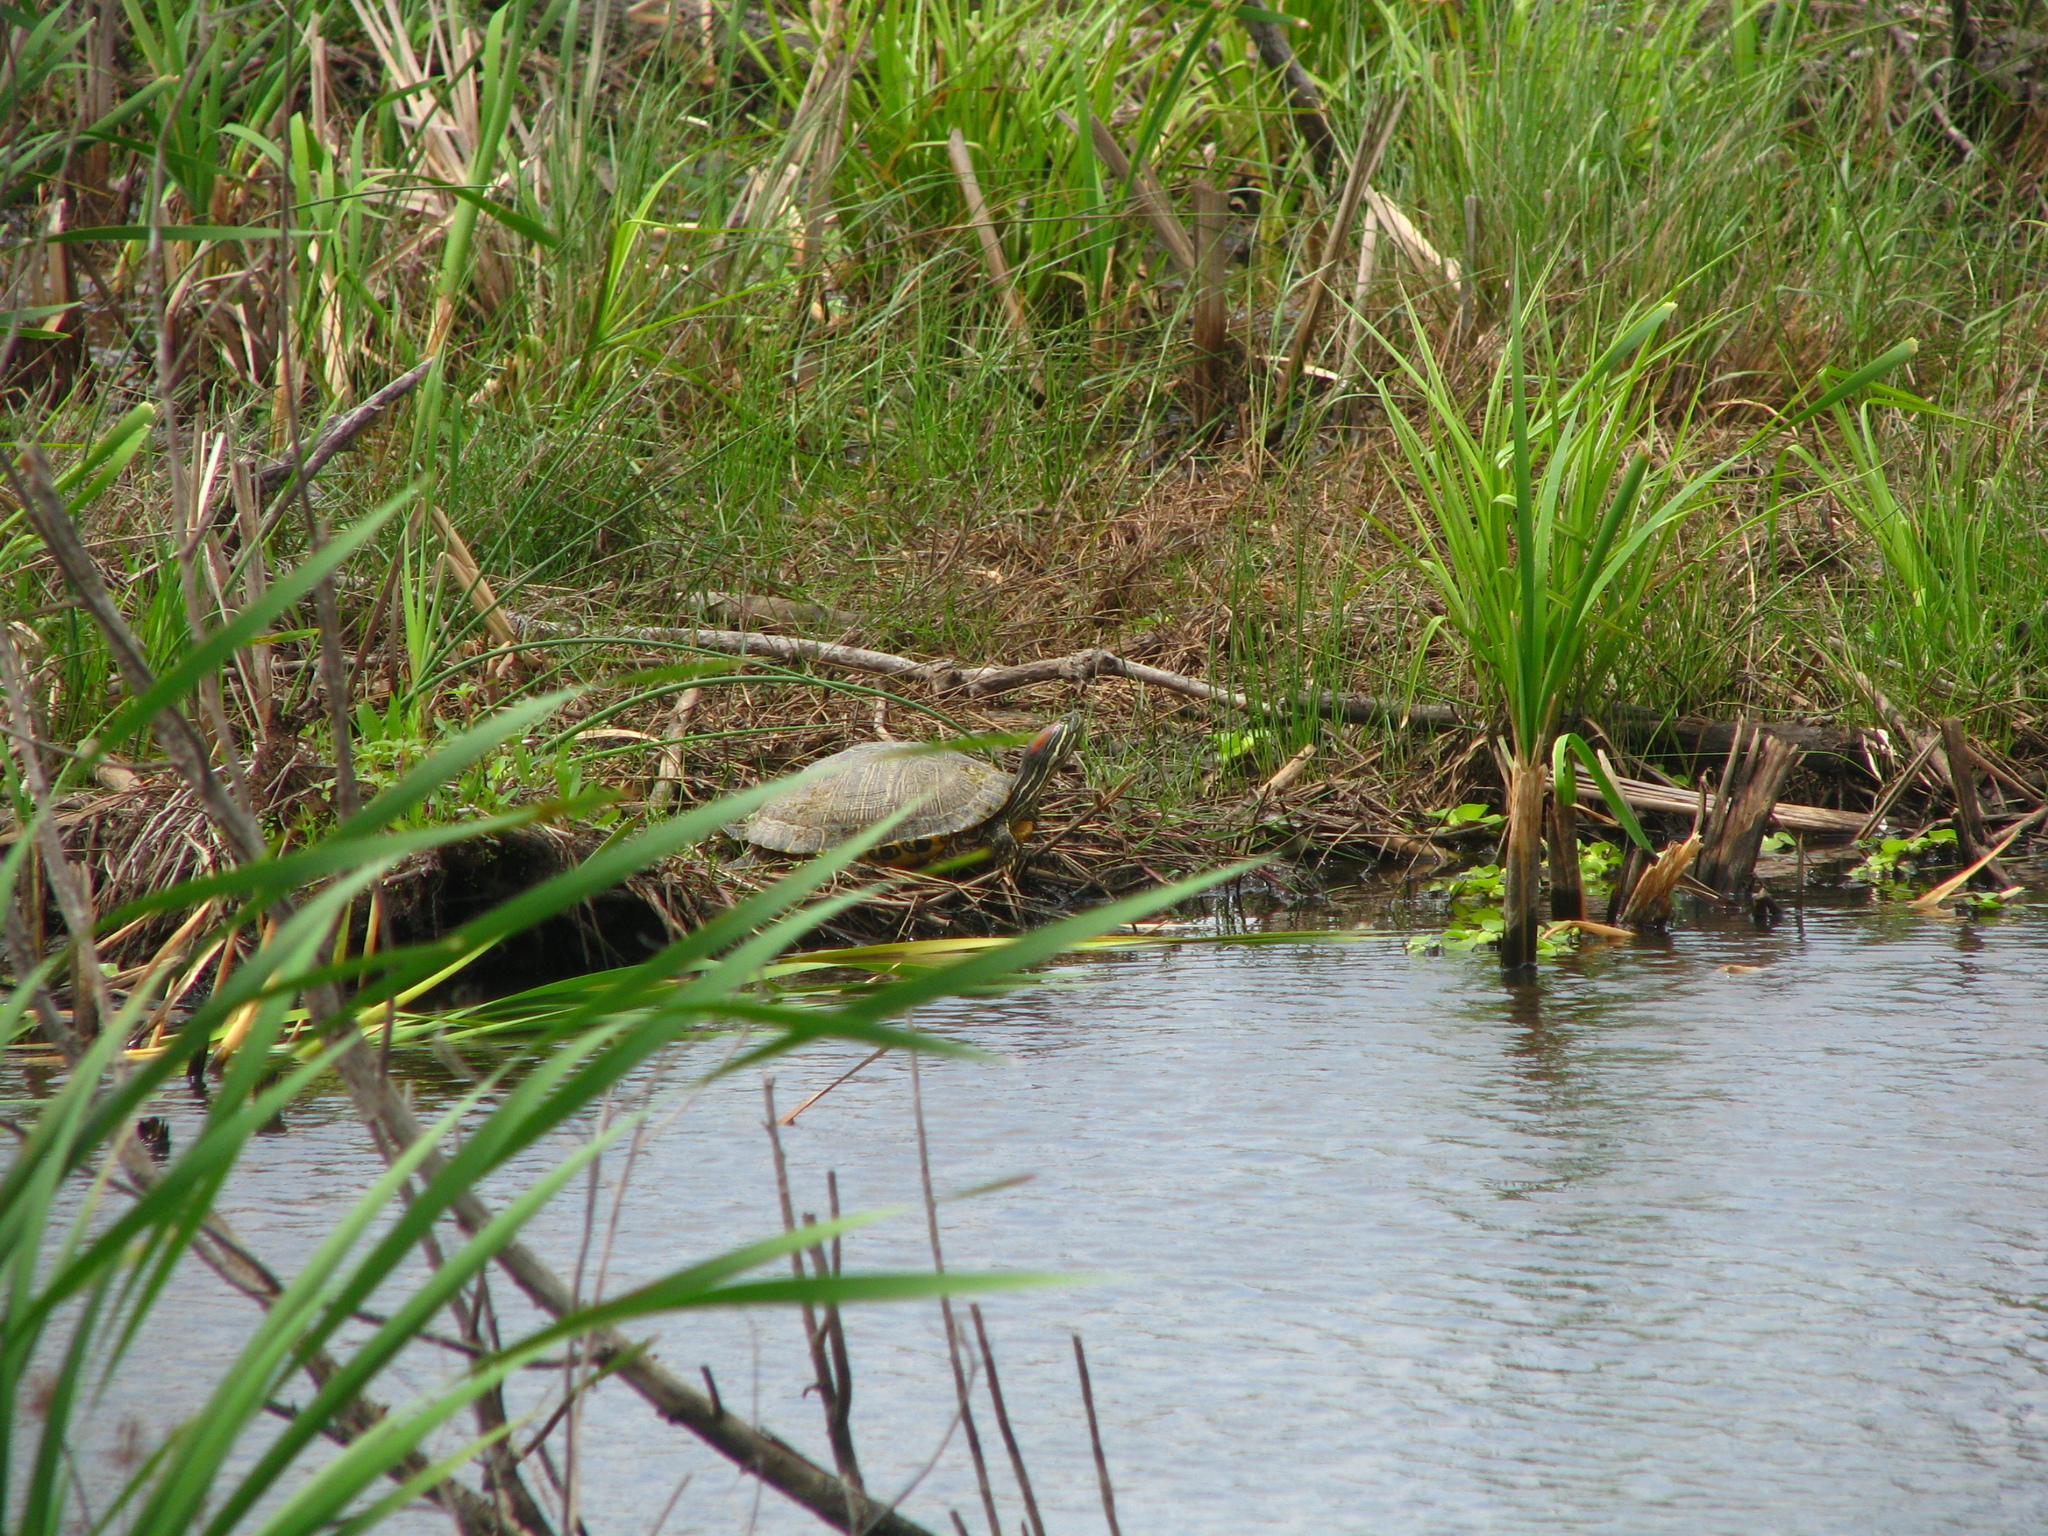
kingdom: Animalia
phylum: Chordata
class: Testudines
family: Emydidae
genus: Trachemys
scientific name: Trachemys scripta
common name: Slider
